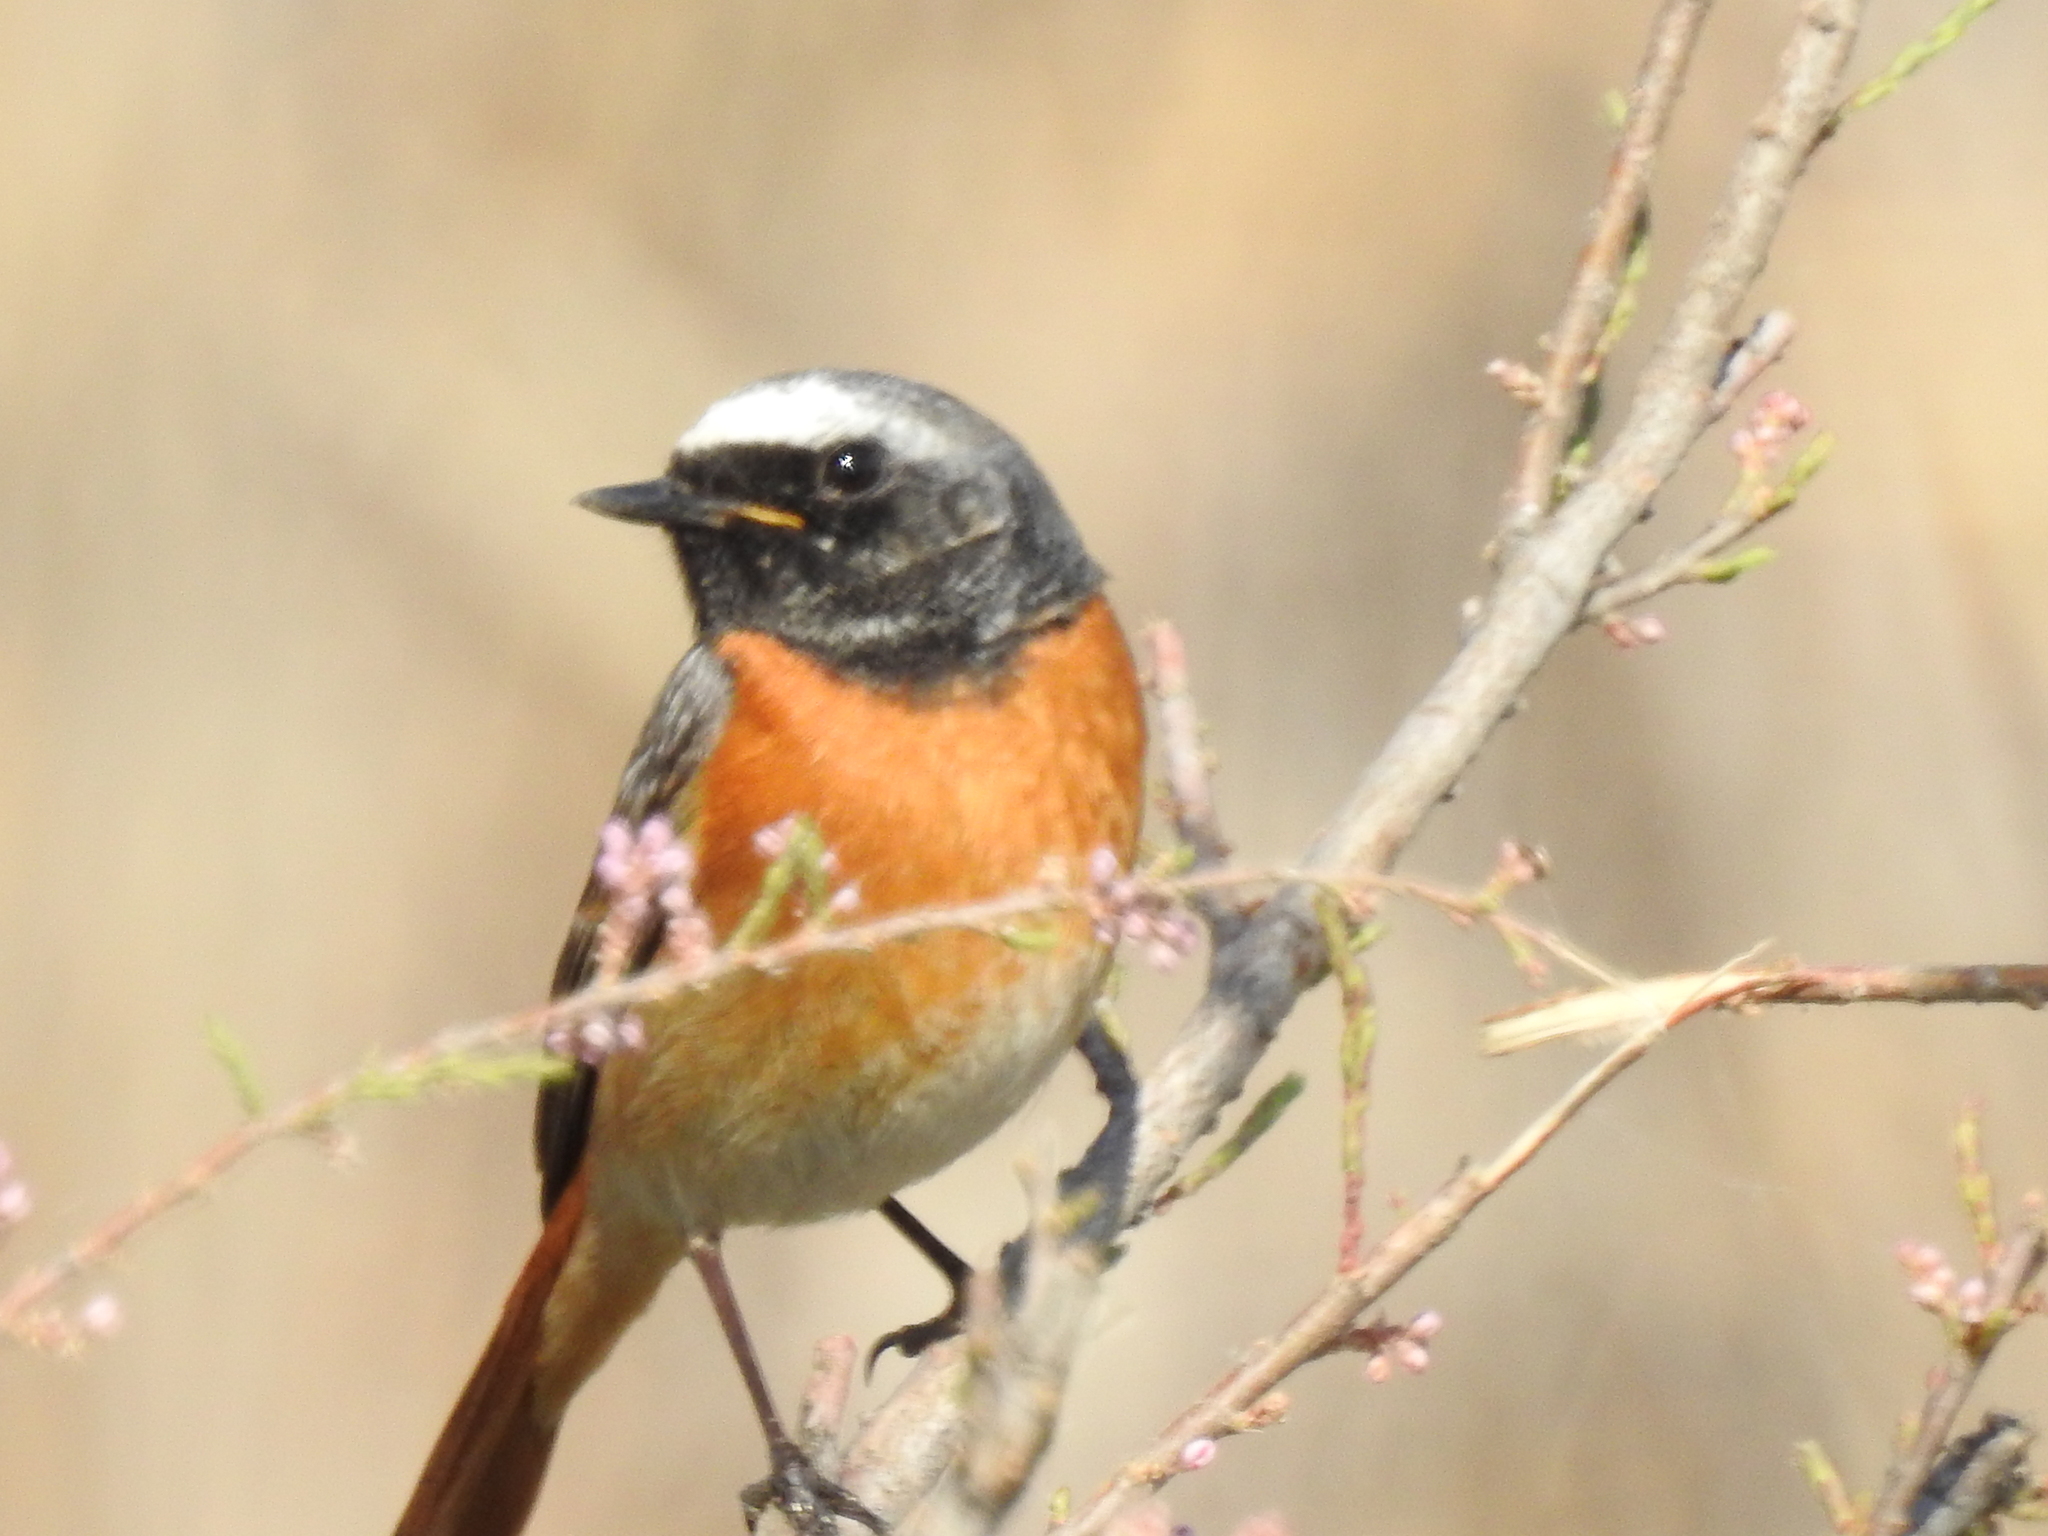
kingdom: Animalia
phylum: Chordata
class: Aves
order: Passeriformes
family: Muscicapidae
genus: Phoenicurus
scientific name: Phoenicurus phoenicurus
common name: Common redstart
